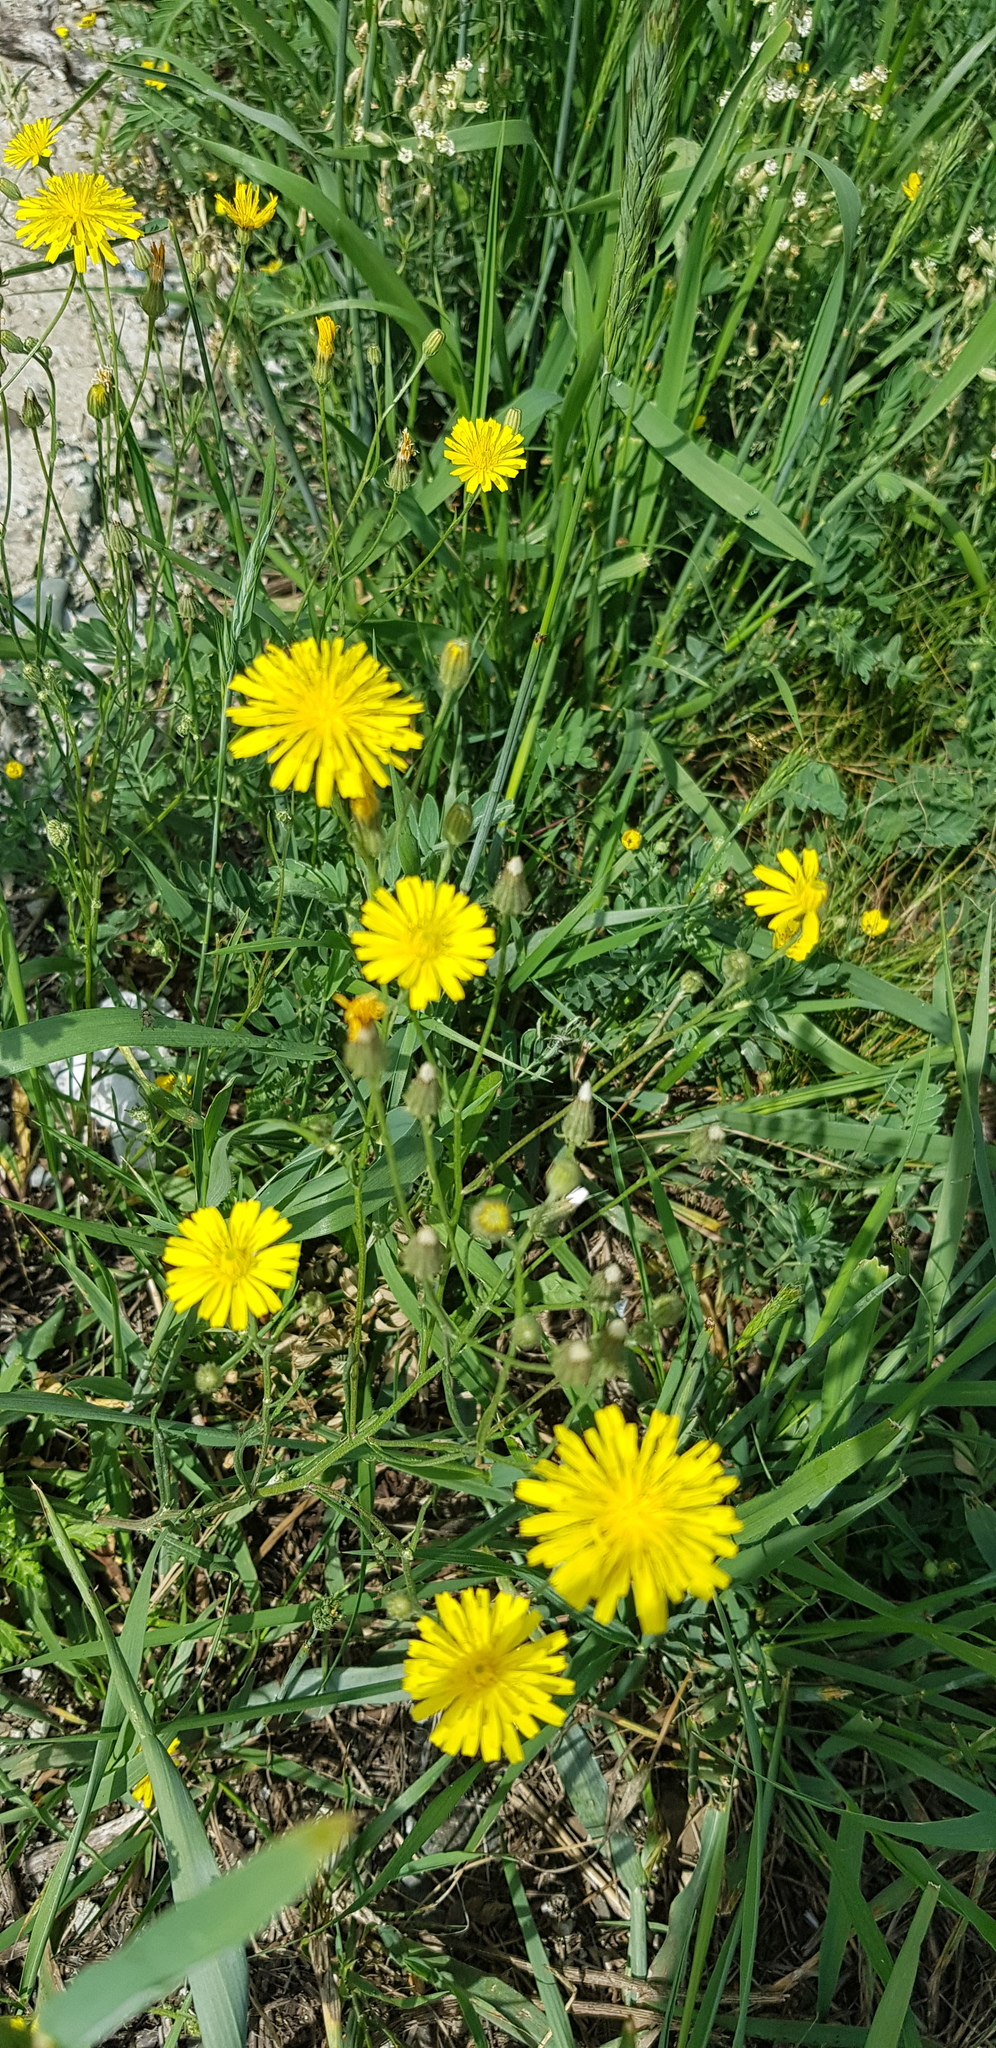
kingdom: Plantae
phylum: Tracheophyta
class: Magnoliopsida
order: Asterales
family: Asteraceae
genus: Crepis
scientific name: Crepis tectorum
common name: Narrow-leaved hawk's-beard
